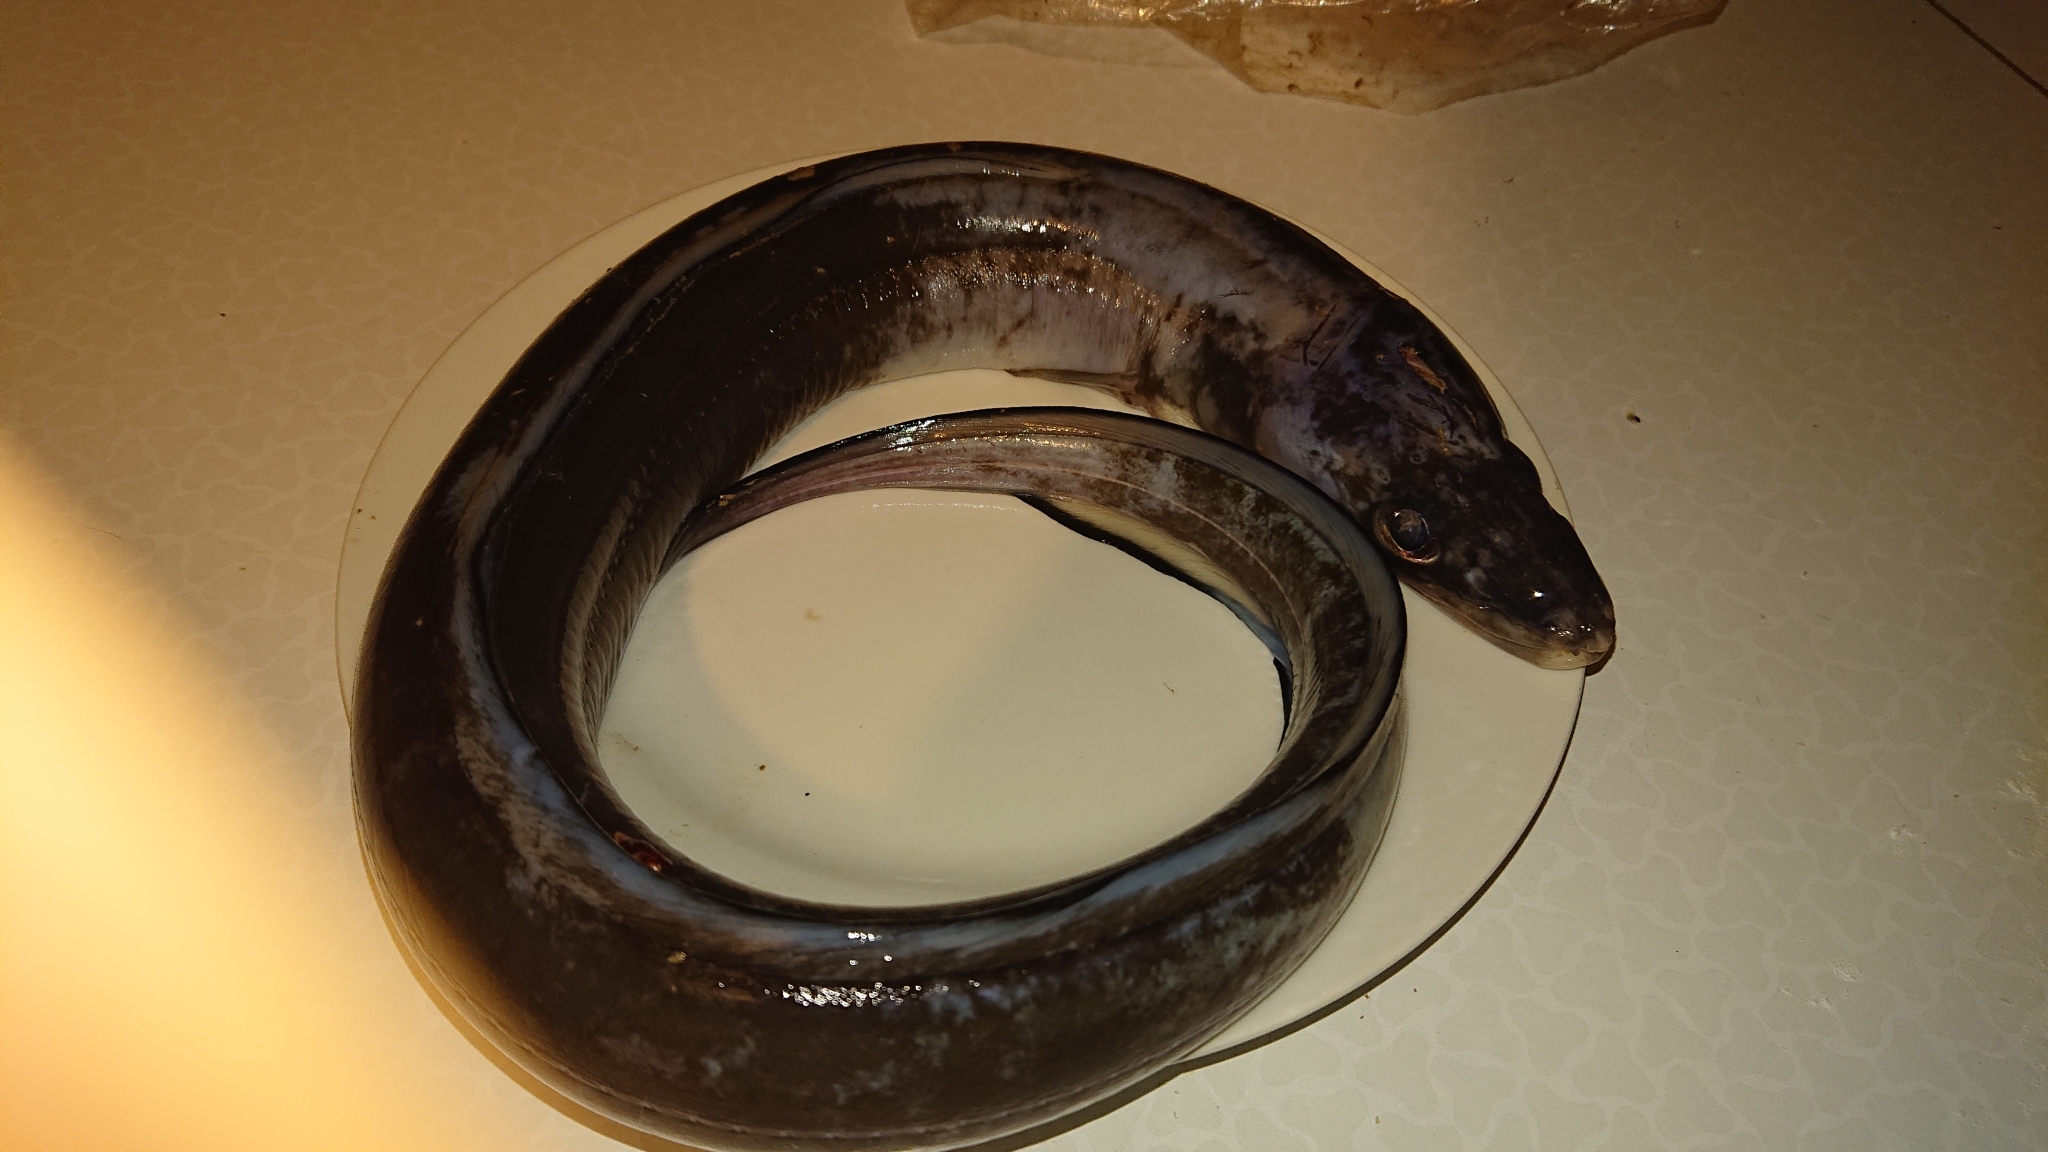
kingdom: Animalia
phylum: Chordata
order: Anguilliformes
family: Congridae
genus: Conger
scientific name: Conger conger
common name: Conger eel
